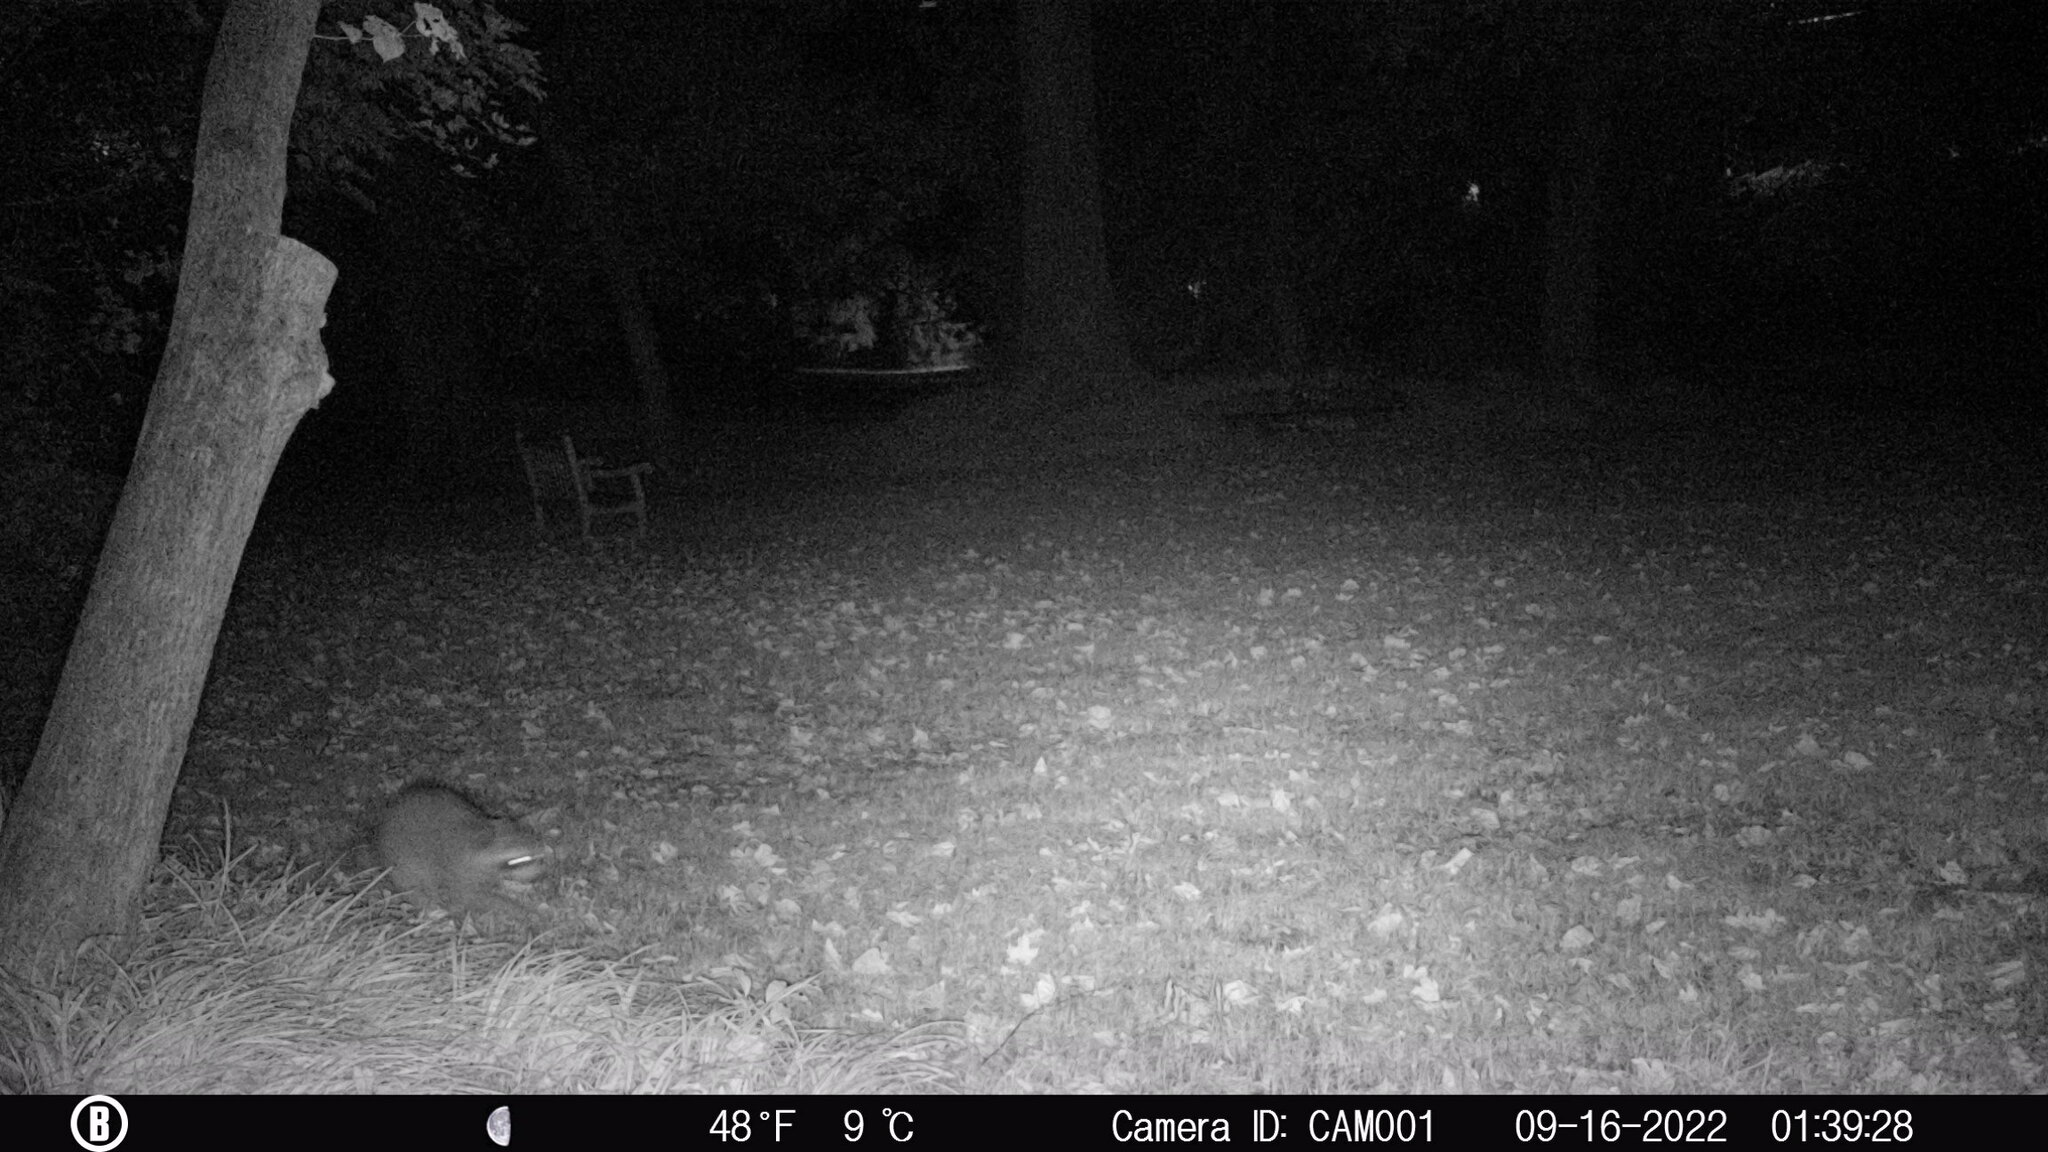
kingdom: Animalia
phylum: Chordata
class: Mammalia
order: Carnivora
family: Procyonidae
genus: Procyon
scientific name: Procyon lotor
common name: Raccoon
